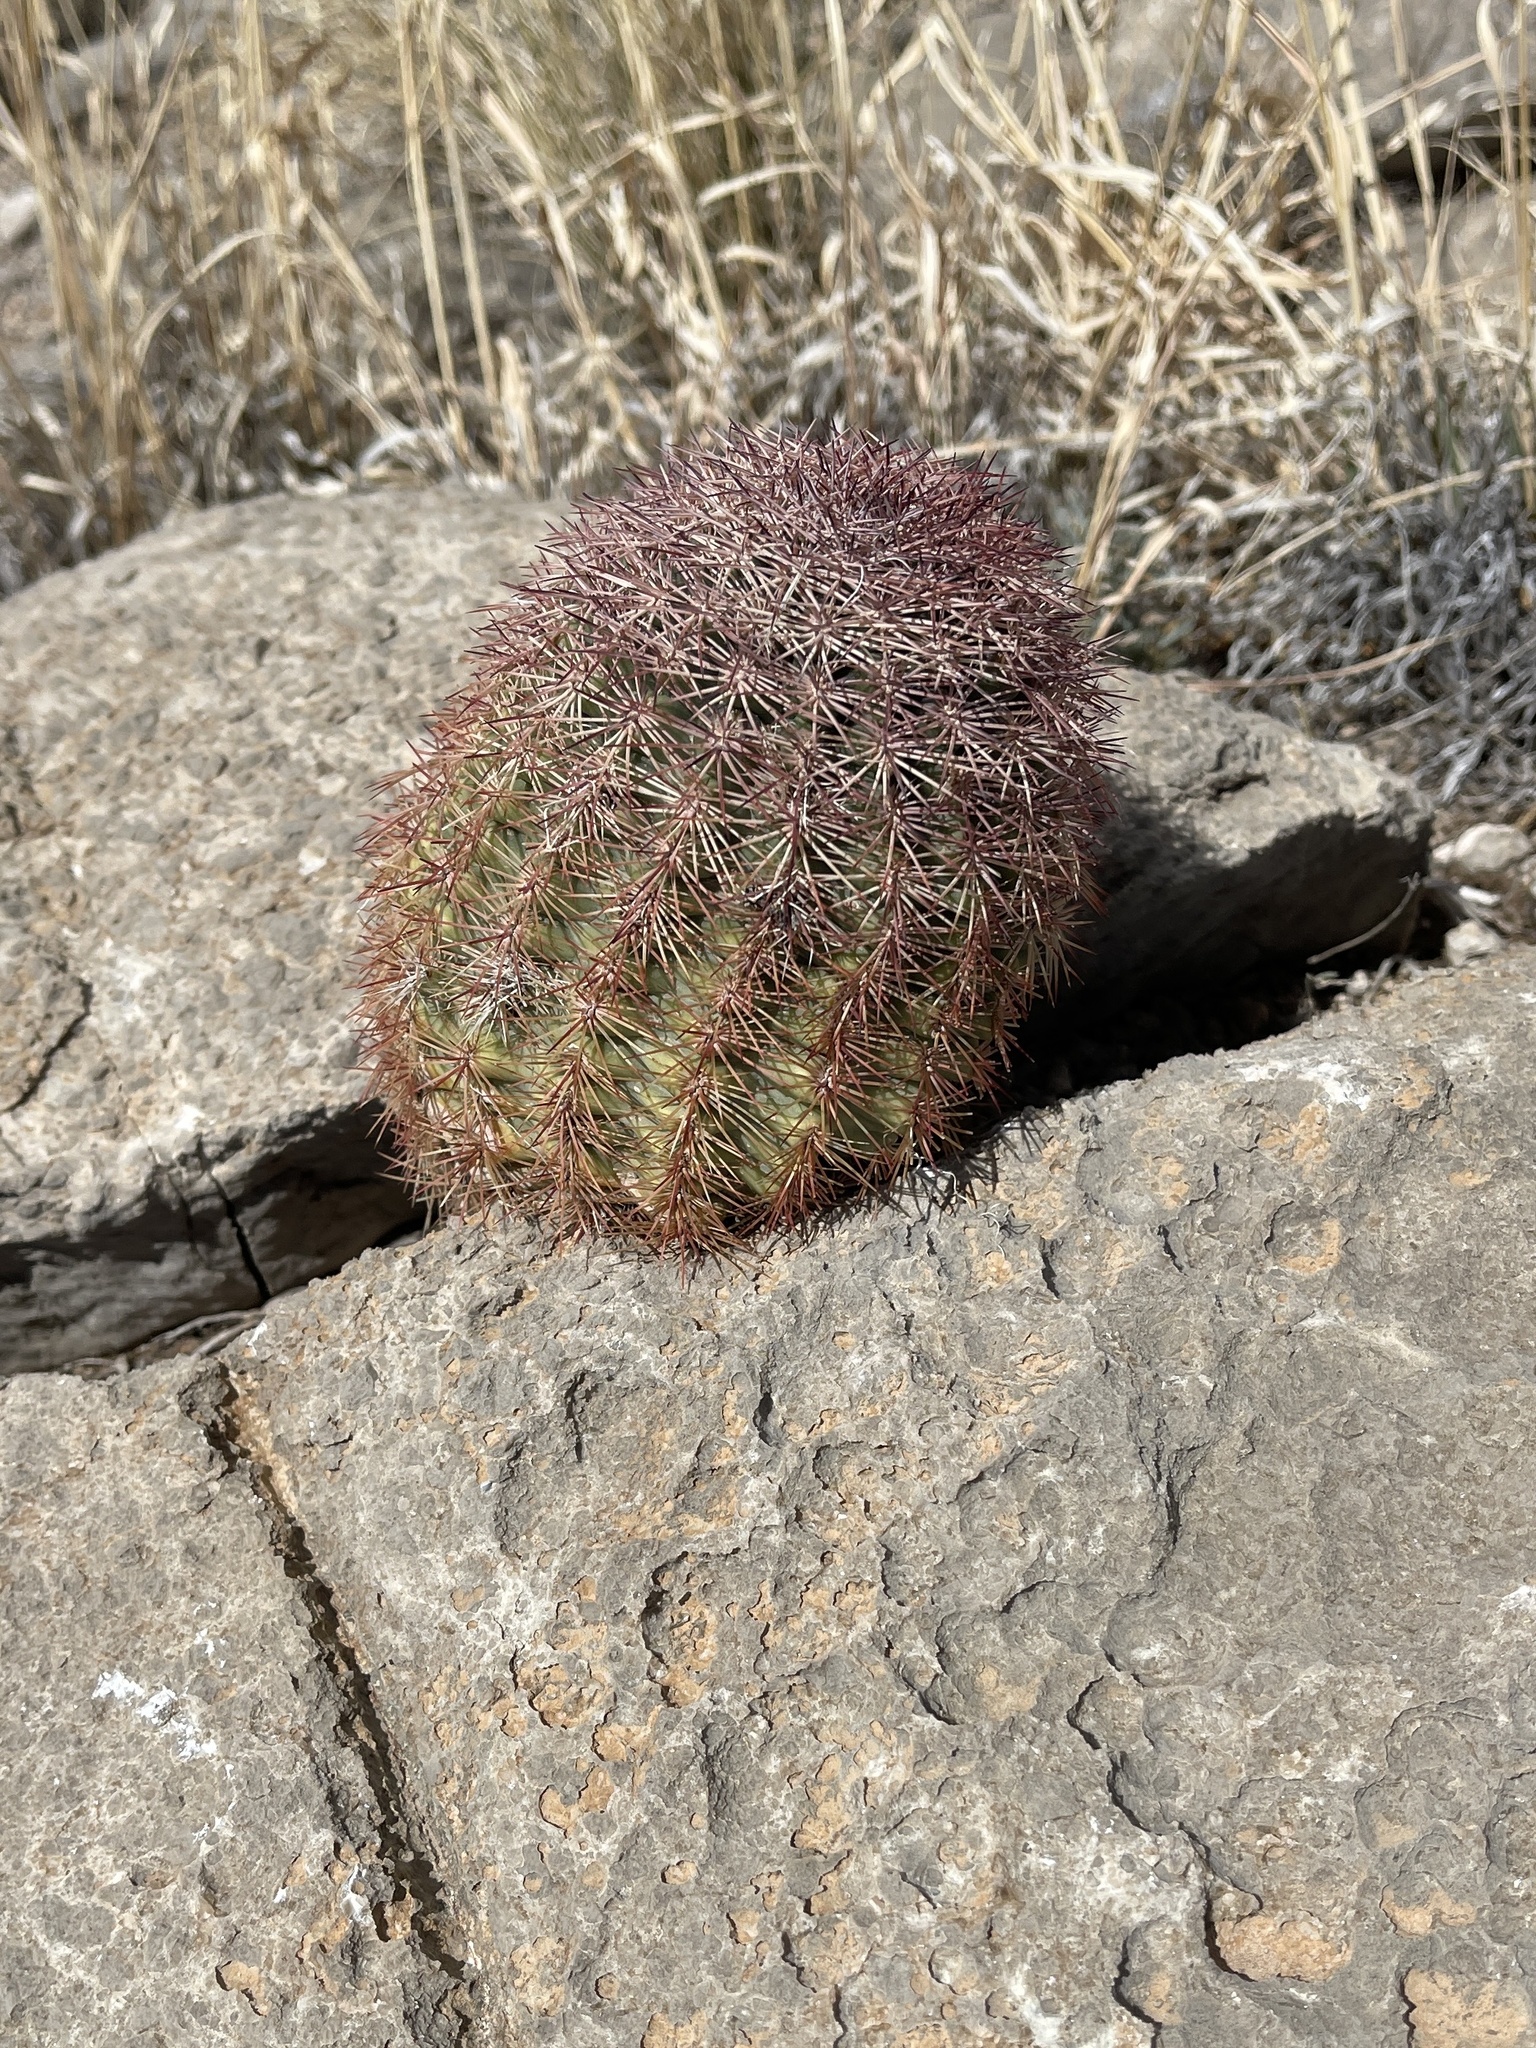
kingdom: Plantae
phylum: Tracheophyta
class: Magnoliopsida
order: Caryophyllales
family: Cactaceae
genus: Echinocereus
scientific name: Echinocereus dasyacanthus
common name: Spiny hedgehog cactus
